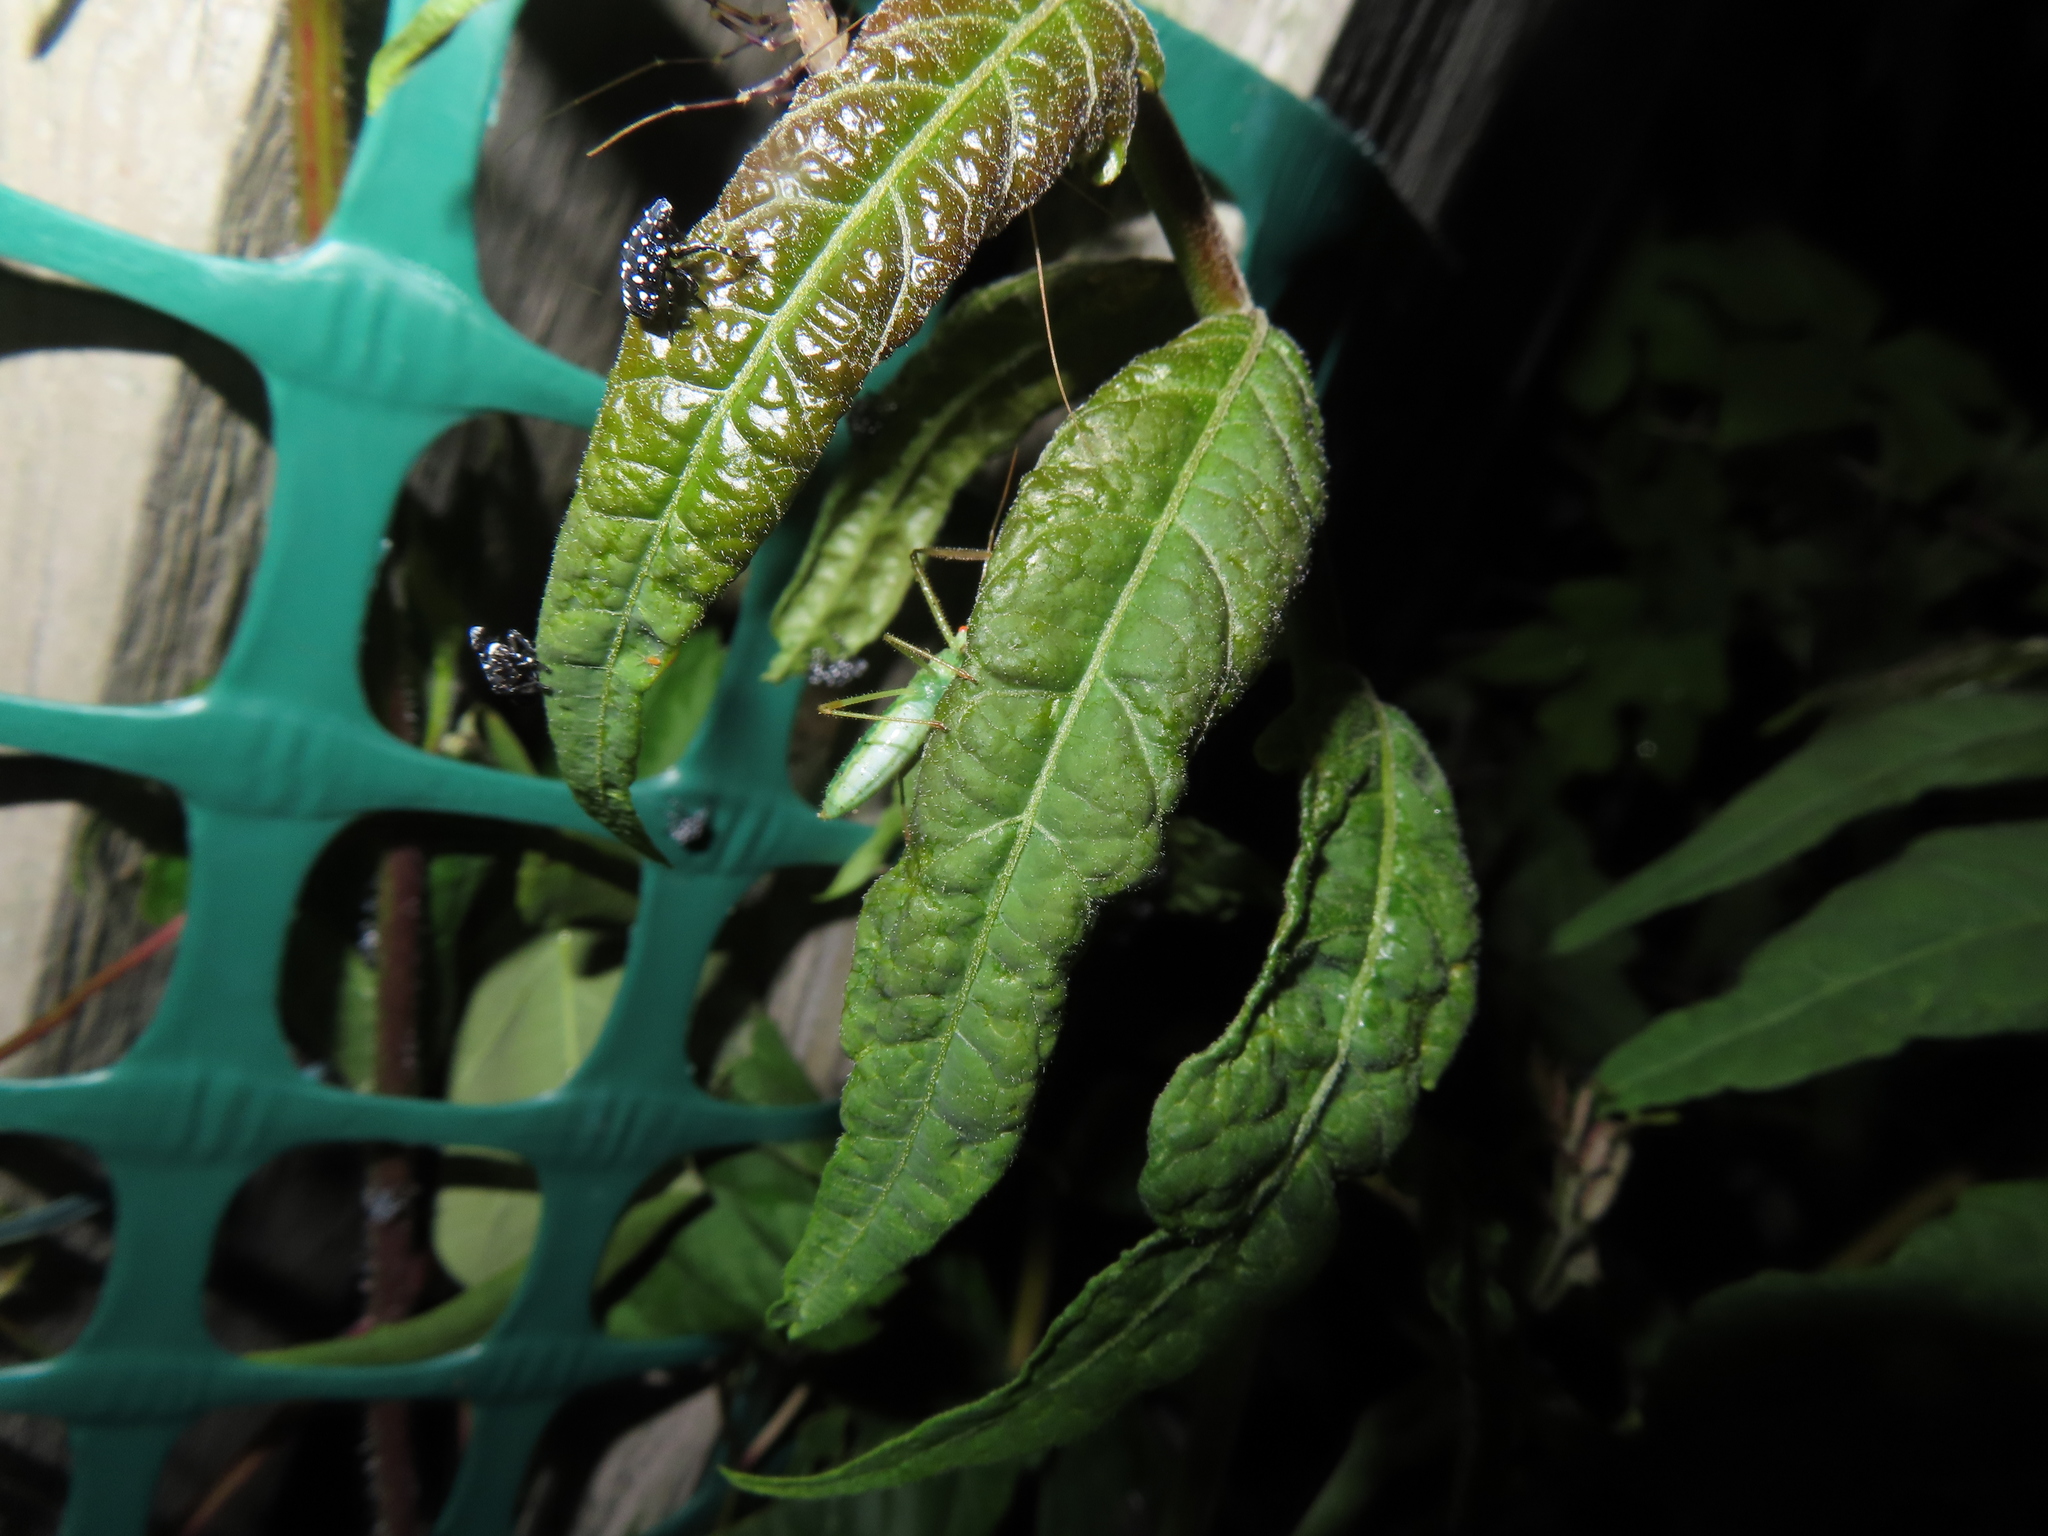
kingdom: Animalia
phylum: Arthropoda
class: Insecta
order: Hemiptera
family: Reduviidae
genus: Zelus
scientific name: Zelus luridus
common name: Pale green assassin bug
